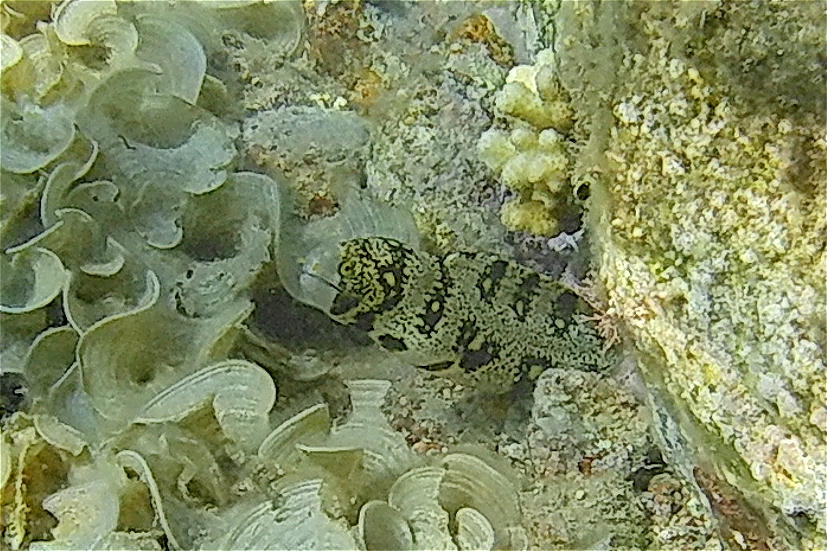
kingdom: Animalia
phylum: Chordata
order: Anguilliformes
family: Muraenidae
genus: Echidna
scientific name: Echidna nebulosa
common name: Snowflake moray
